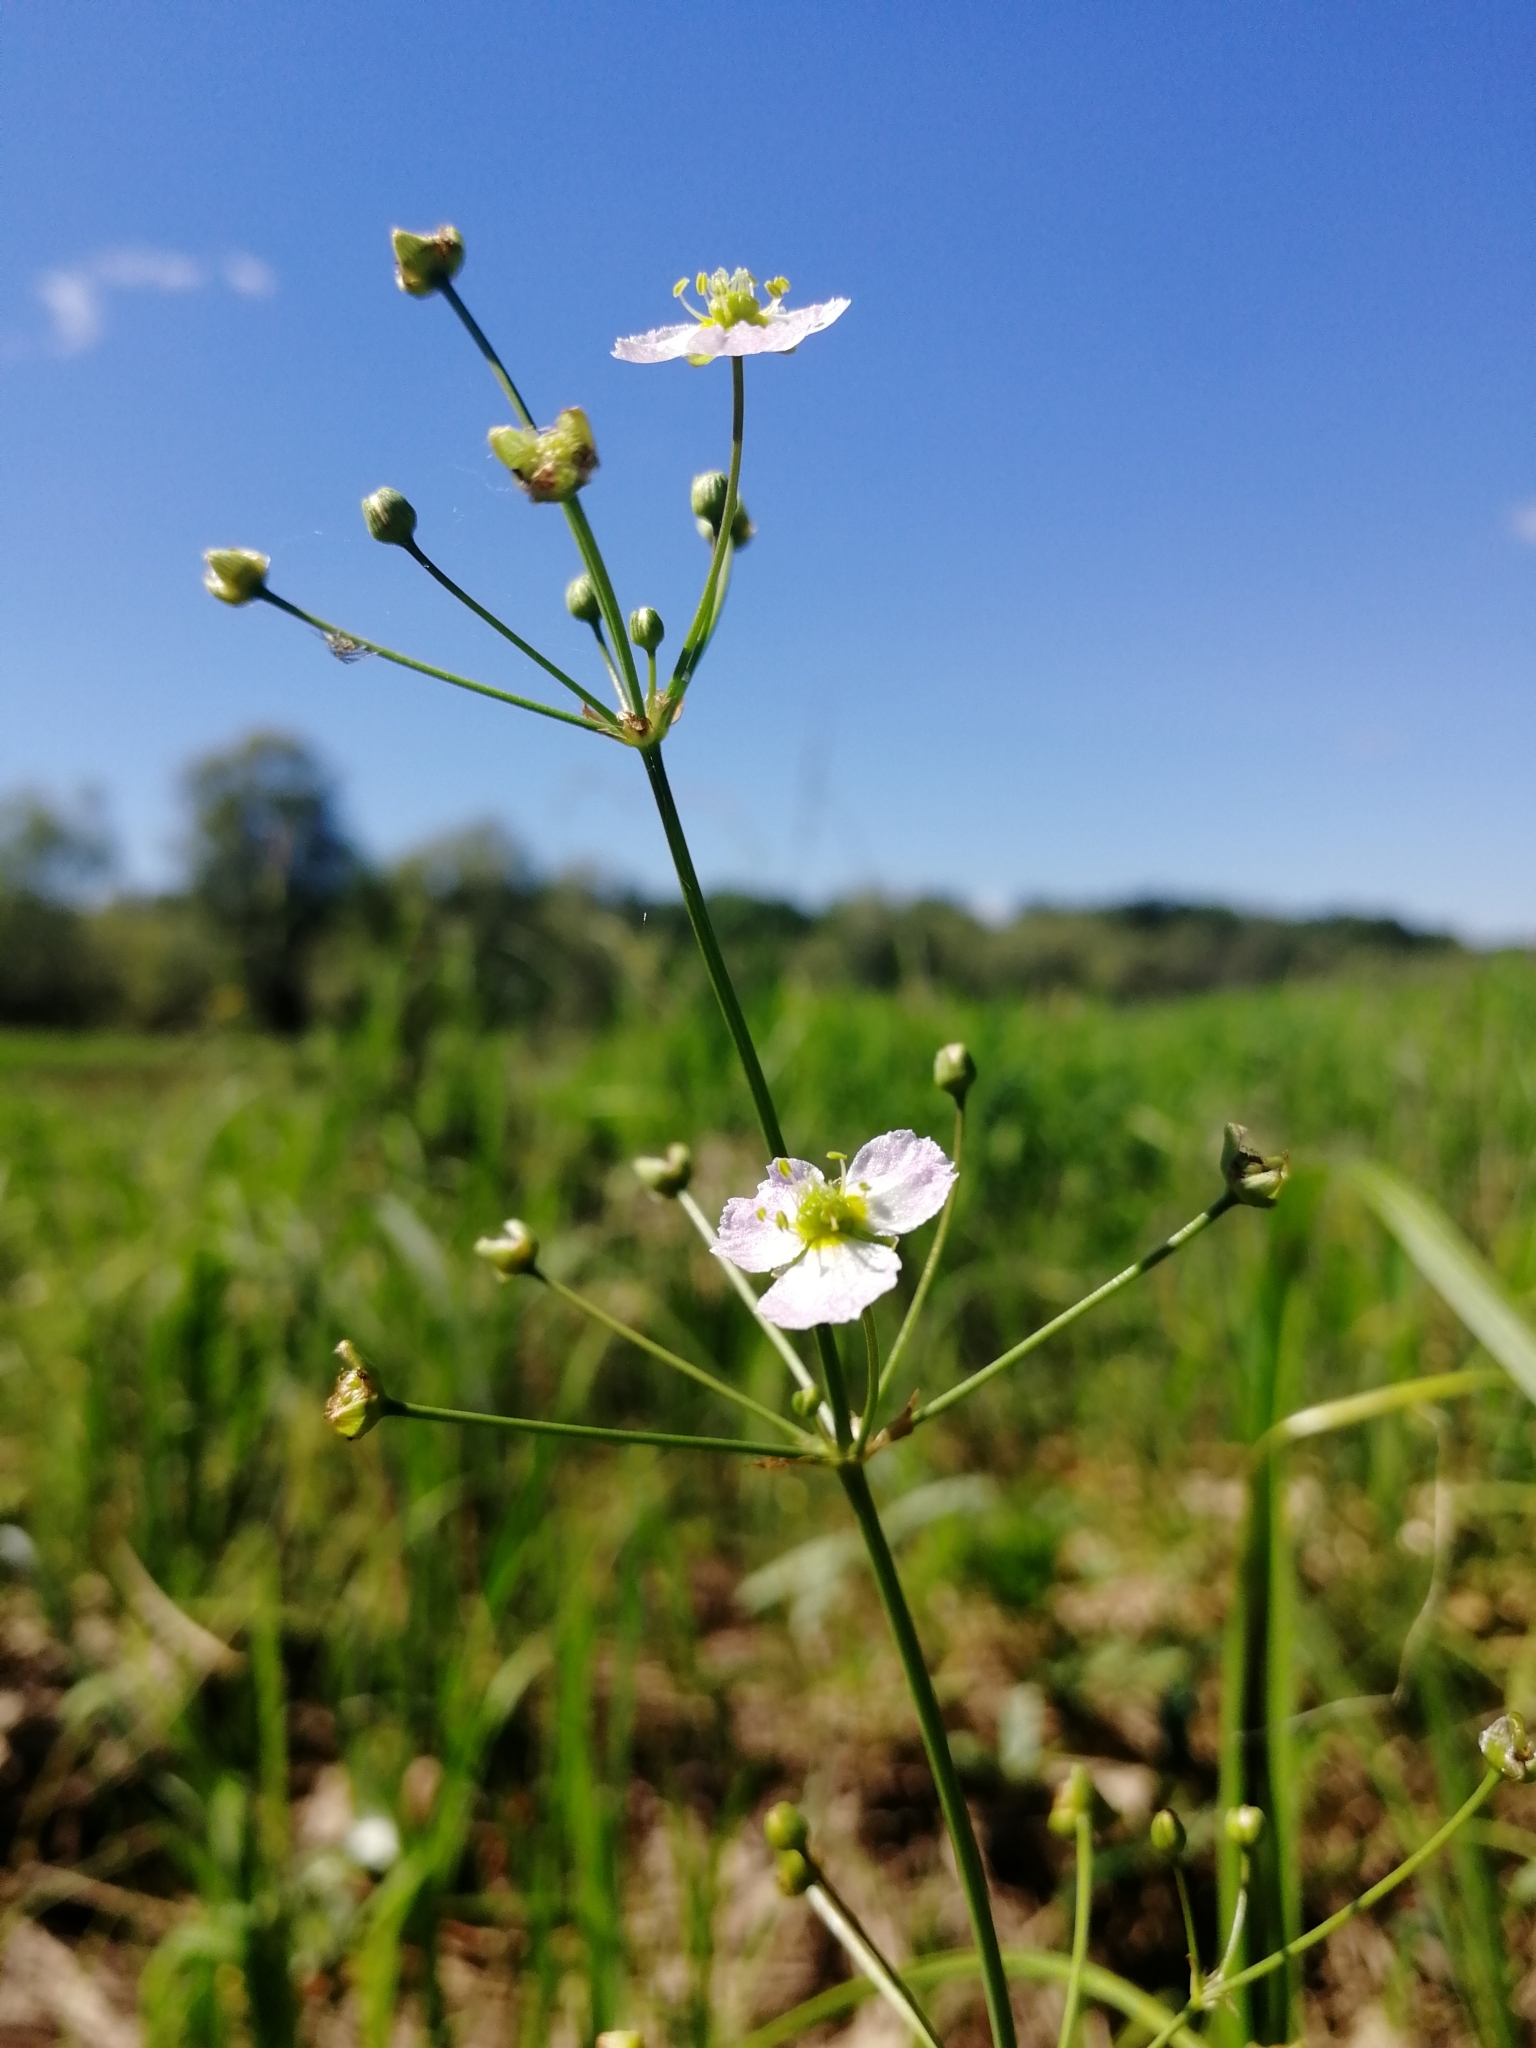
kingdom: Plantae
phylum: Tracheophyta
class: Liliopsida
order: Alismatales
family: Alismataceae
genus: Alisma
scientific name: Alisma plantago-aquatica
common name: Water-plantain
